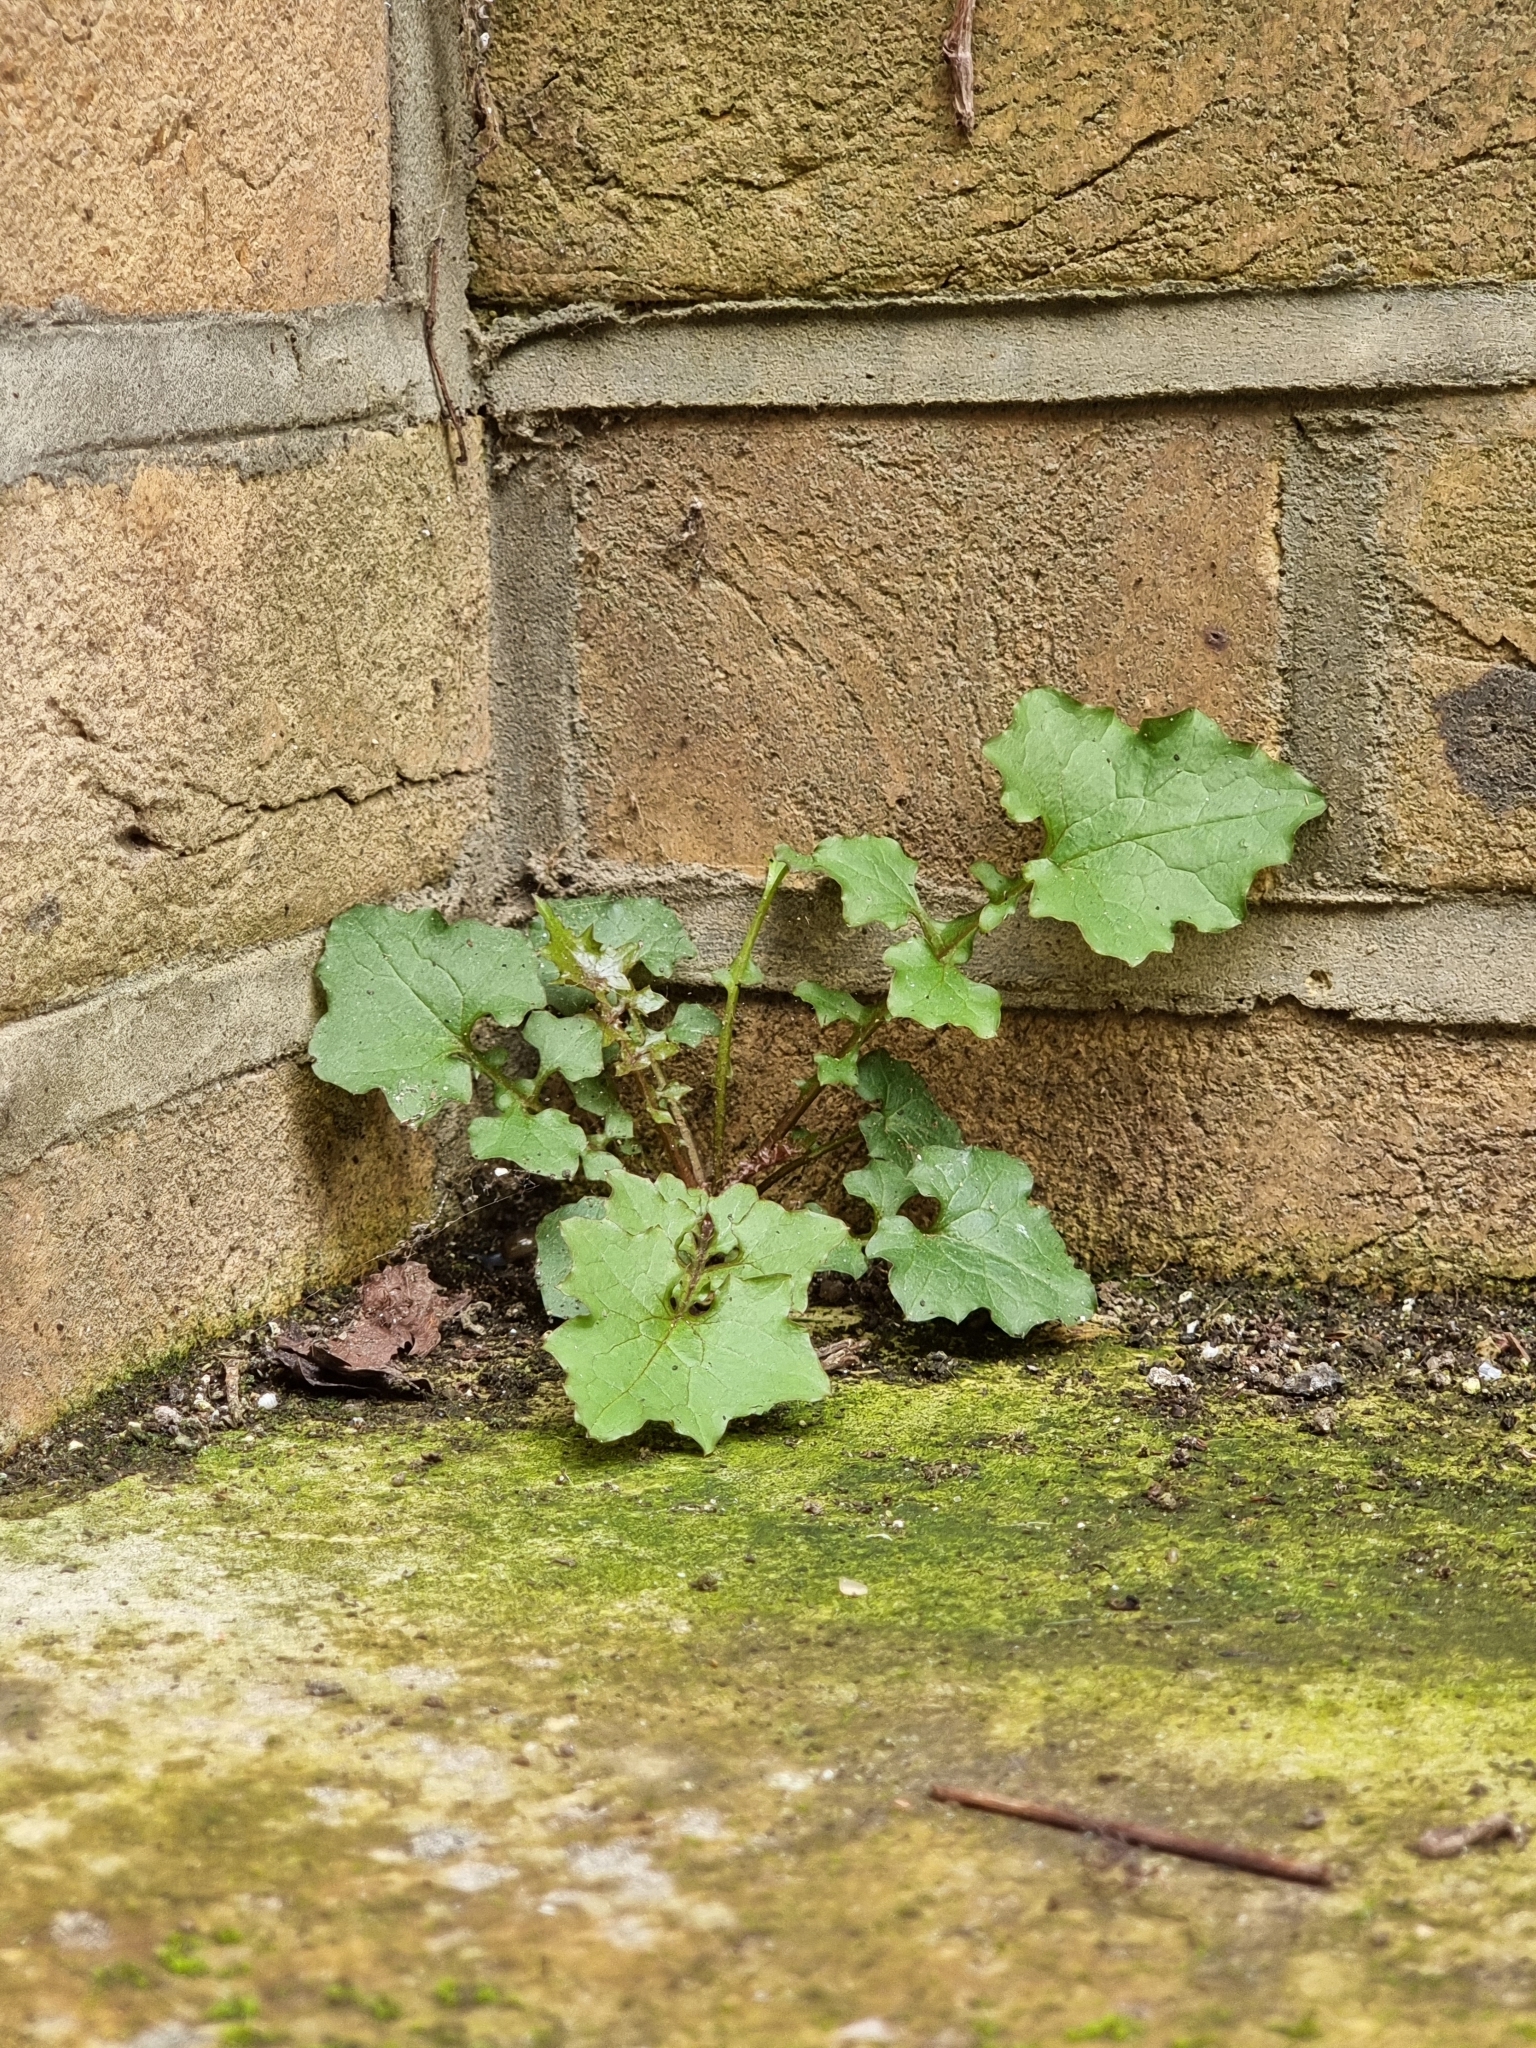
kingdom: Plantae
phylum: Tracheophyta
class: Magnoliopsida
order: Asterales
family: Asteraceae
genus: Mycelis
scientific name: Mycelis muralis
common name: Wall lettuce
